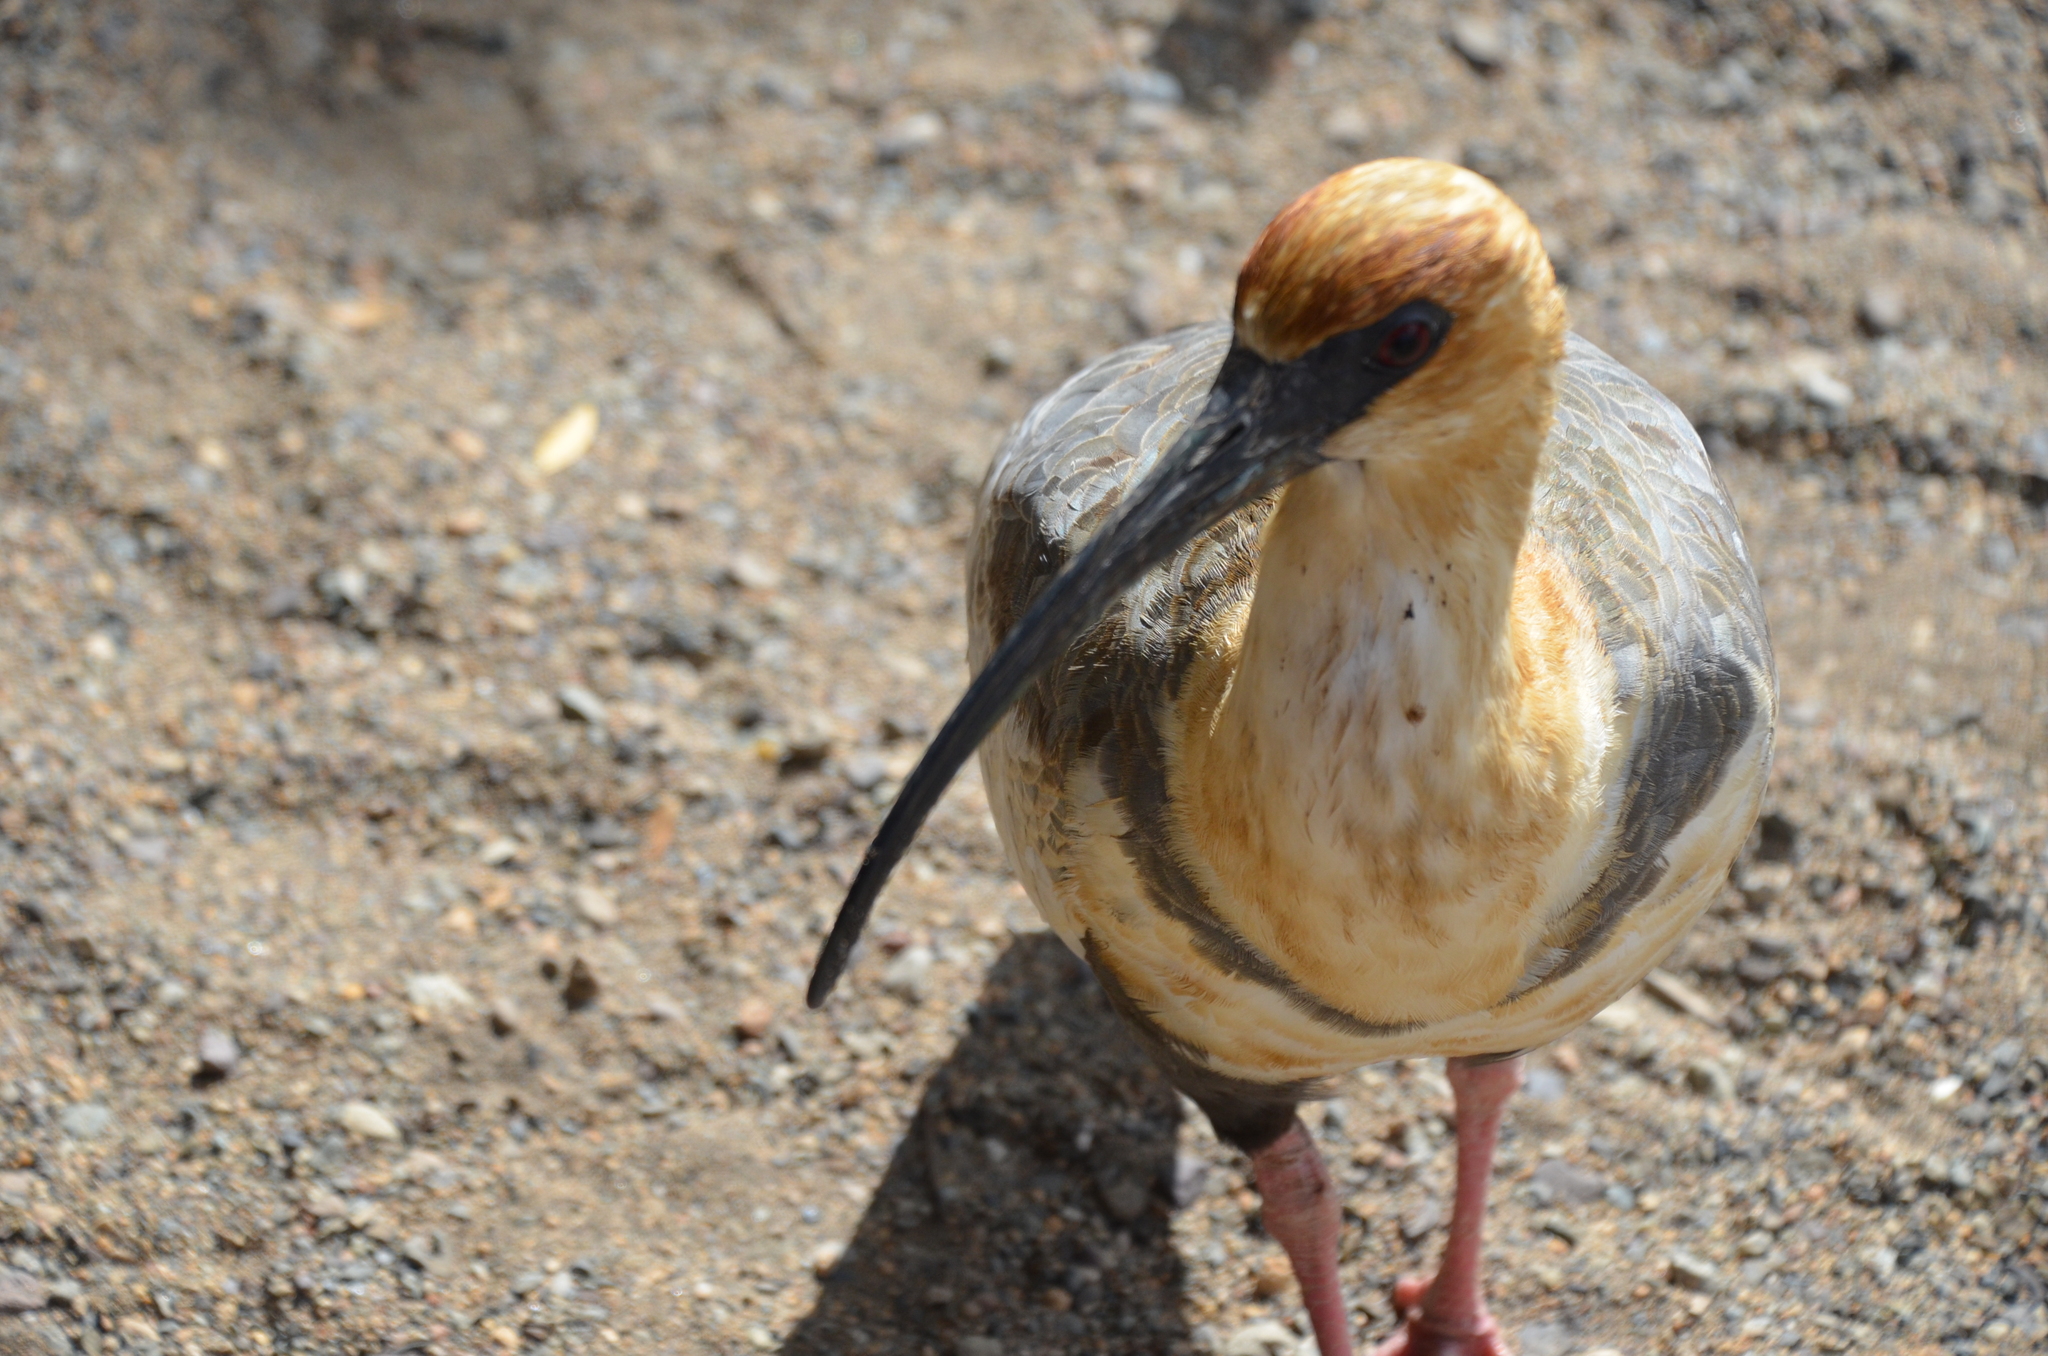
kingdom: Animalia
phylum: Chordata
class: Aves
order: Pelecaniformes
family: Threskiornithidae
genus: Theristicus
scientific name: Theristicus melanopis
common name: Black-faced ibis
